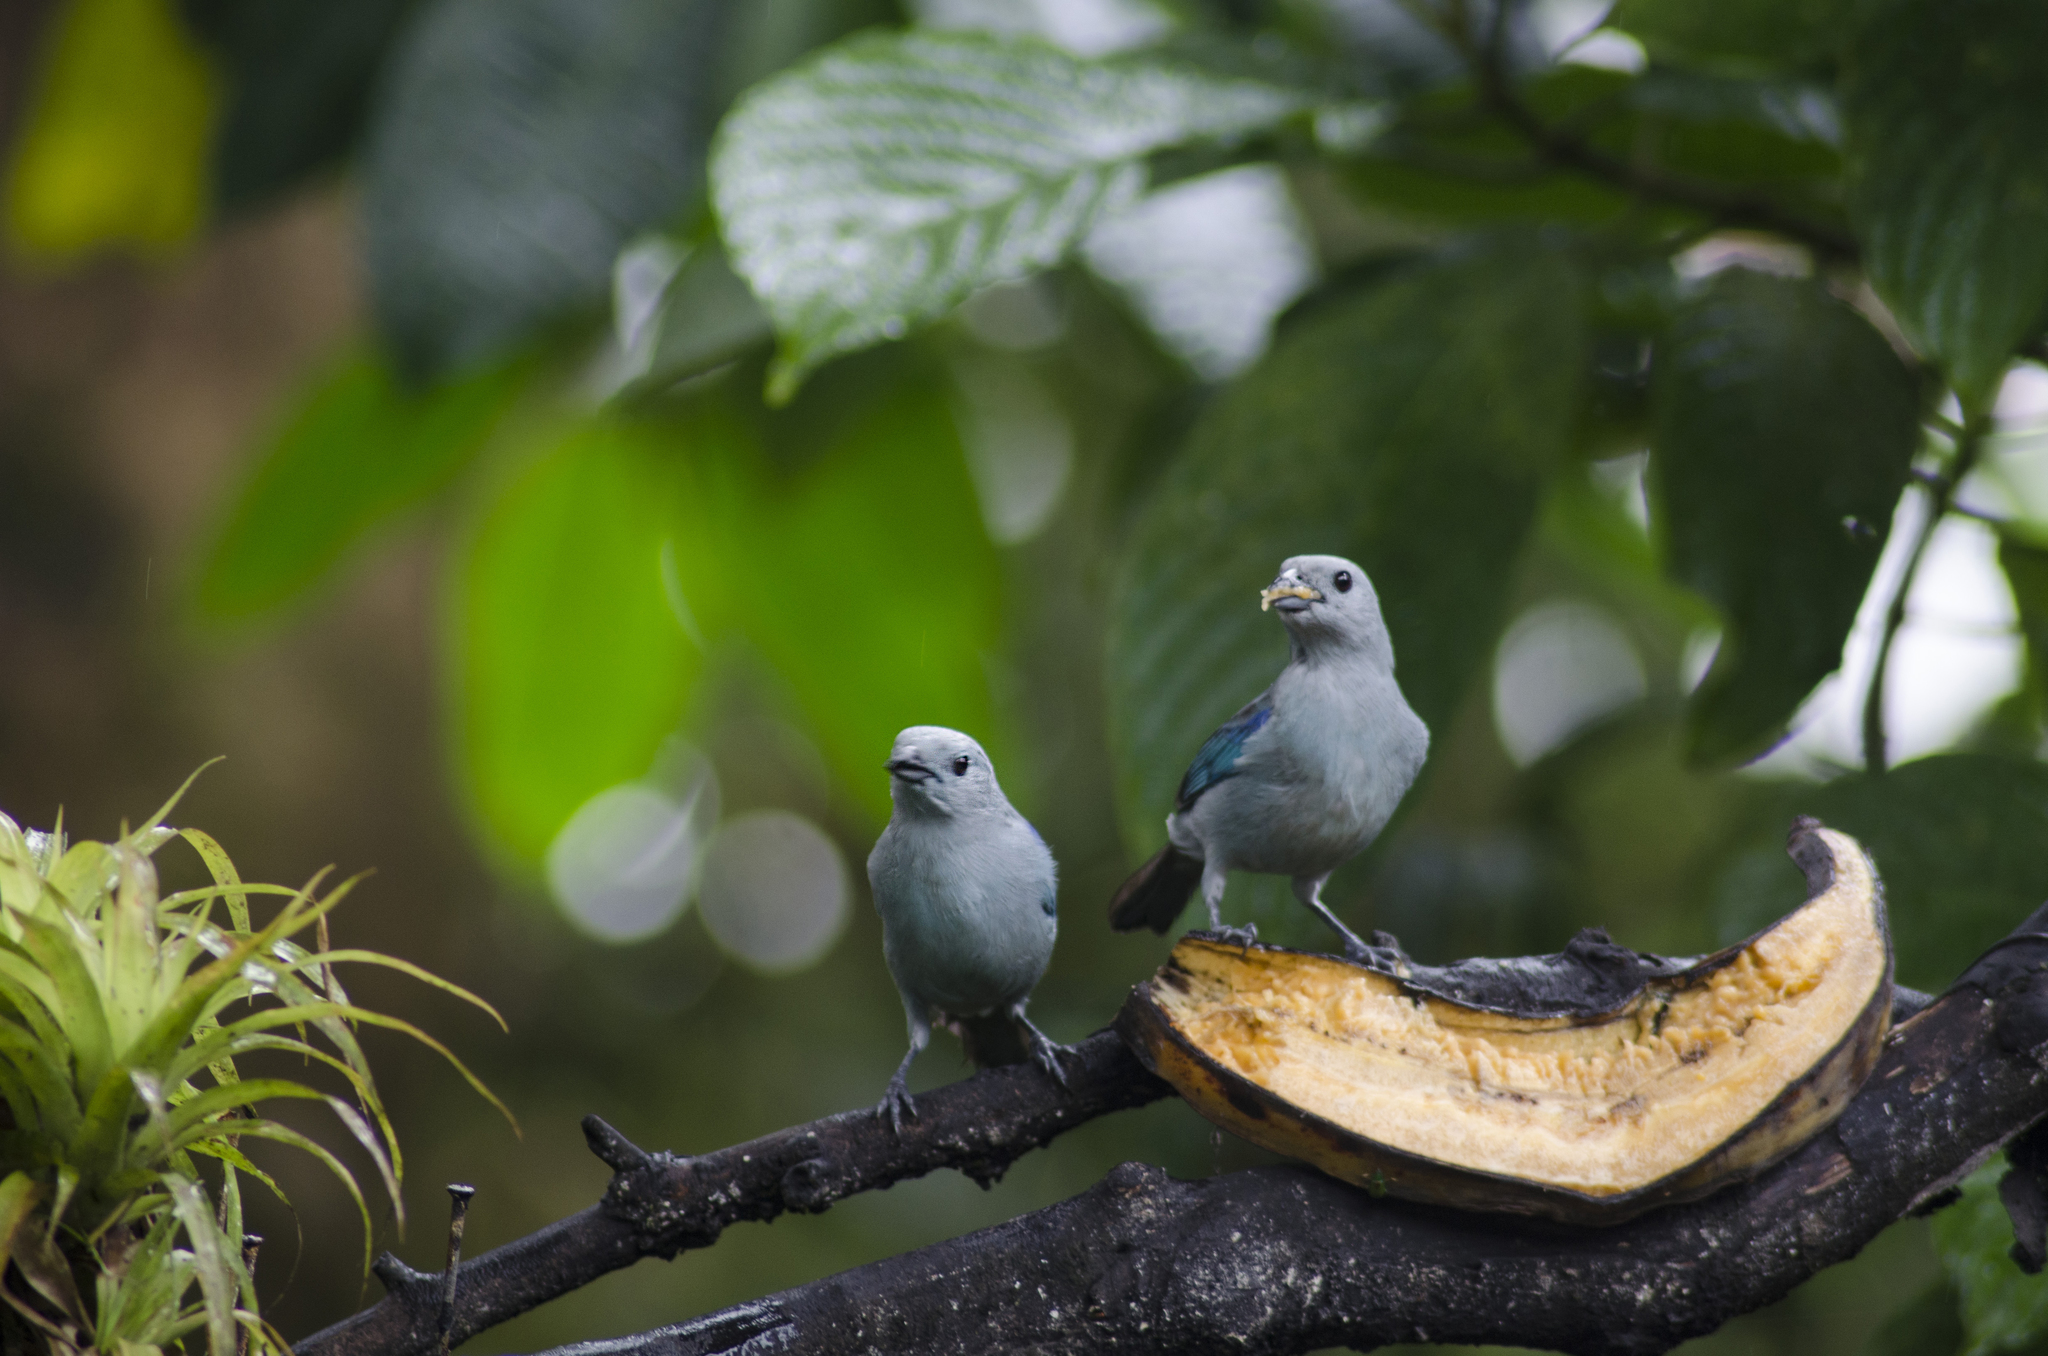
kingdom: Animalia
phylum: Chordata
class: Aves
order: Passeriformes
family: Thraupidae
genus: Thraupis
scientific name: Thraupis episcopus
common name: Blue-grey tanager
